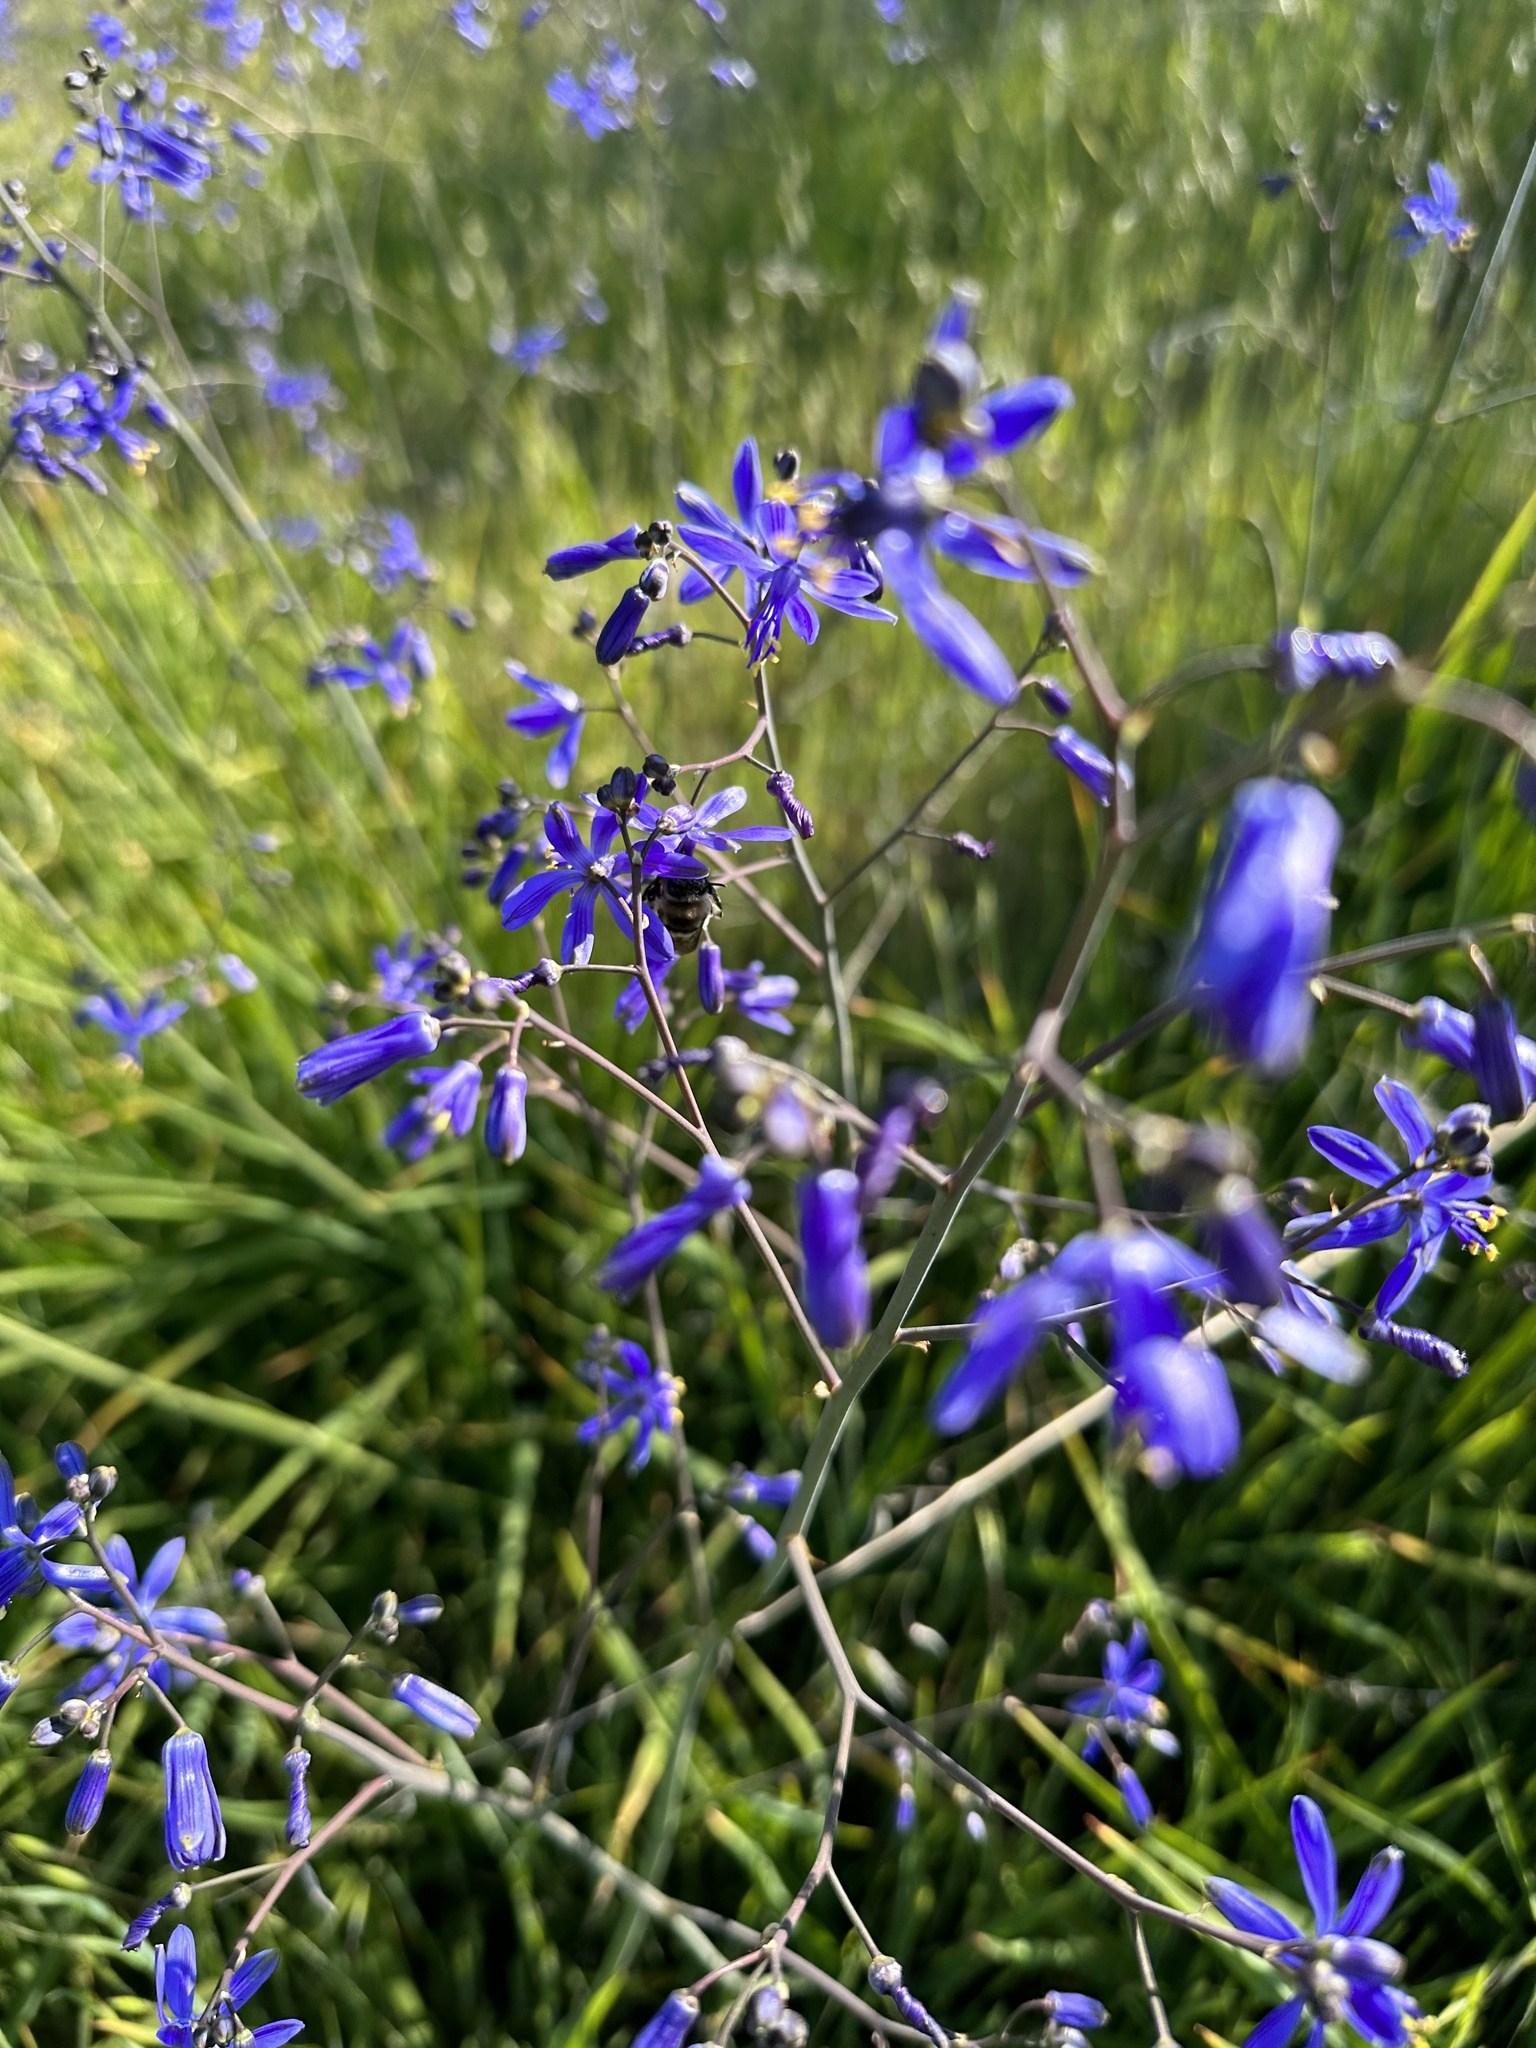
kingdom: Plantae
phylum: Tracheophyta
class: Liliopsida
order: Asparagales
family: Asphodelaceae
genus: Pasithea
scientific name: Pasithea caerulea
